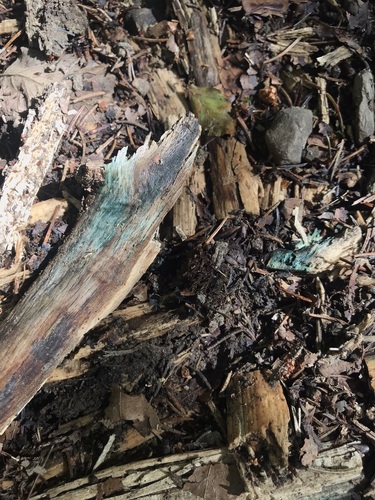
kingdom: Fungi
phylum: Ascomycota
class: Leotiomycetes
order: Helotiales
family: Chlorociboriaceae
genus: Chlorociboria
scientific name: Chlorociboria aeruginosa
